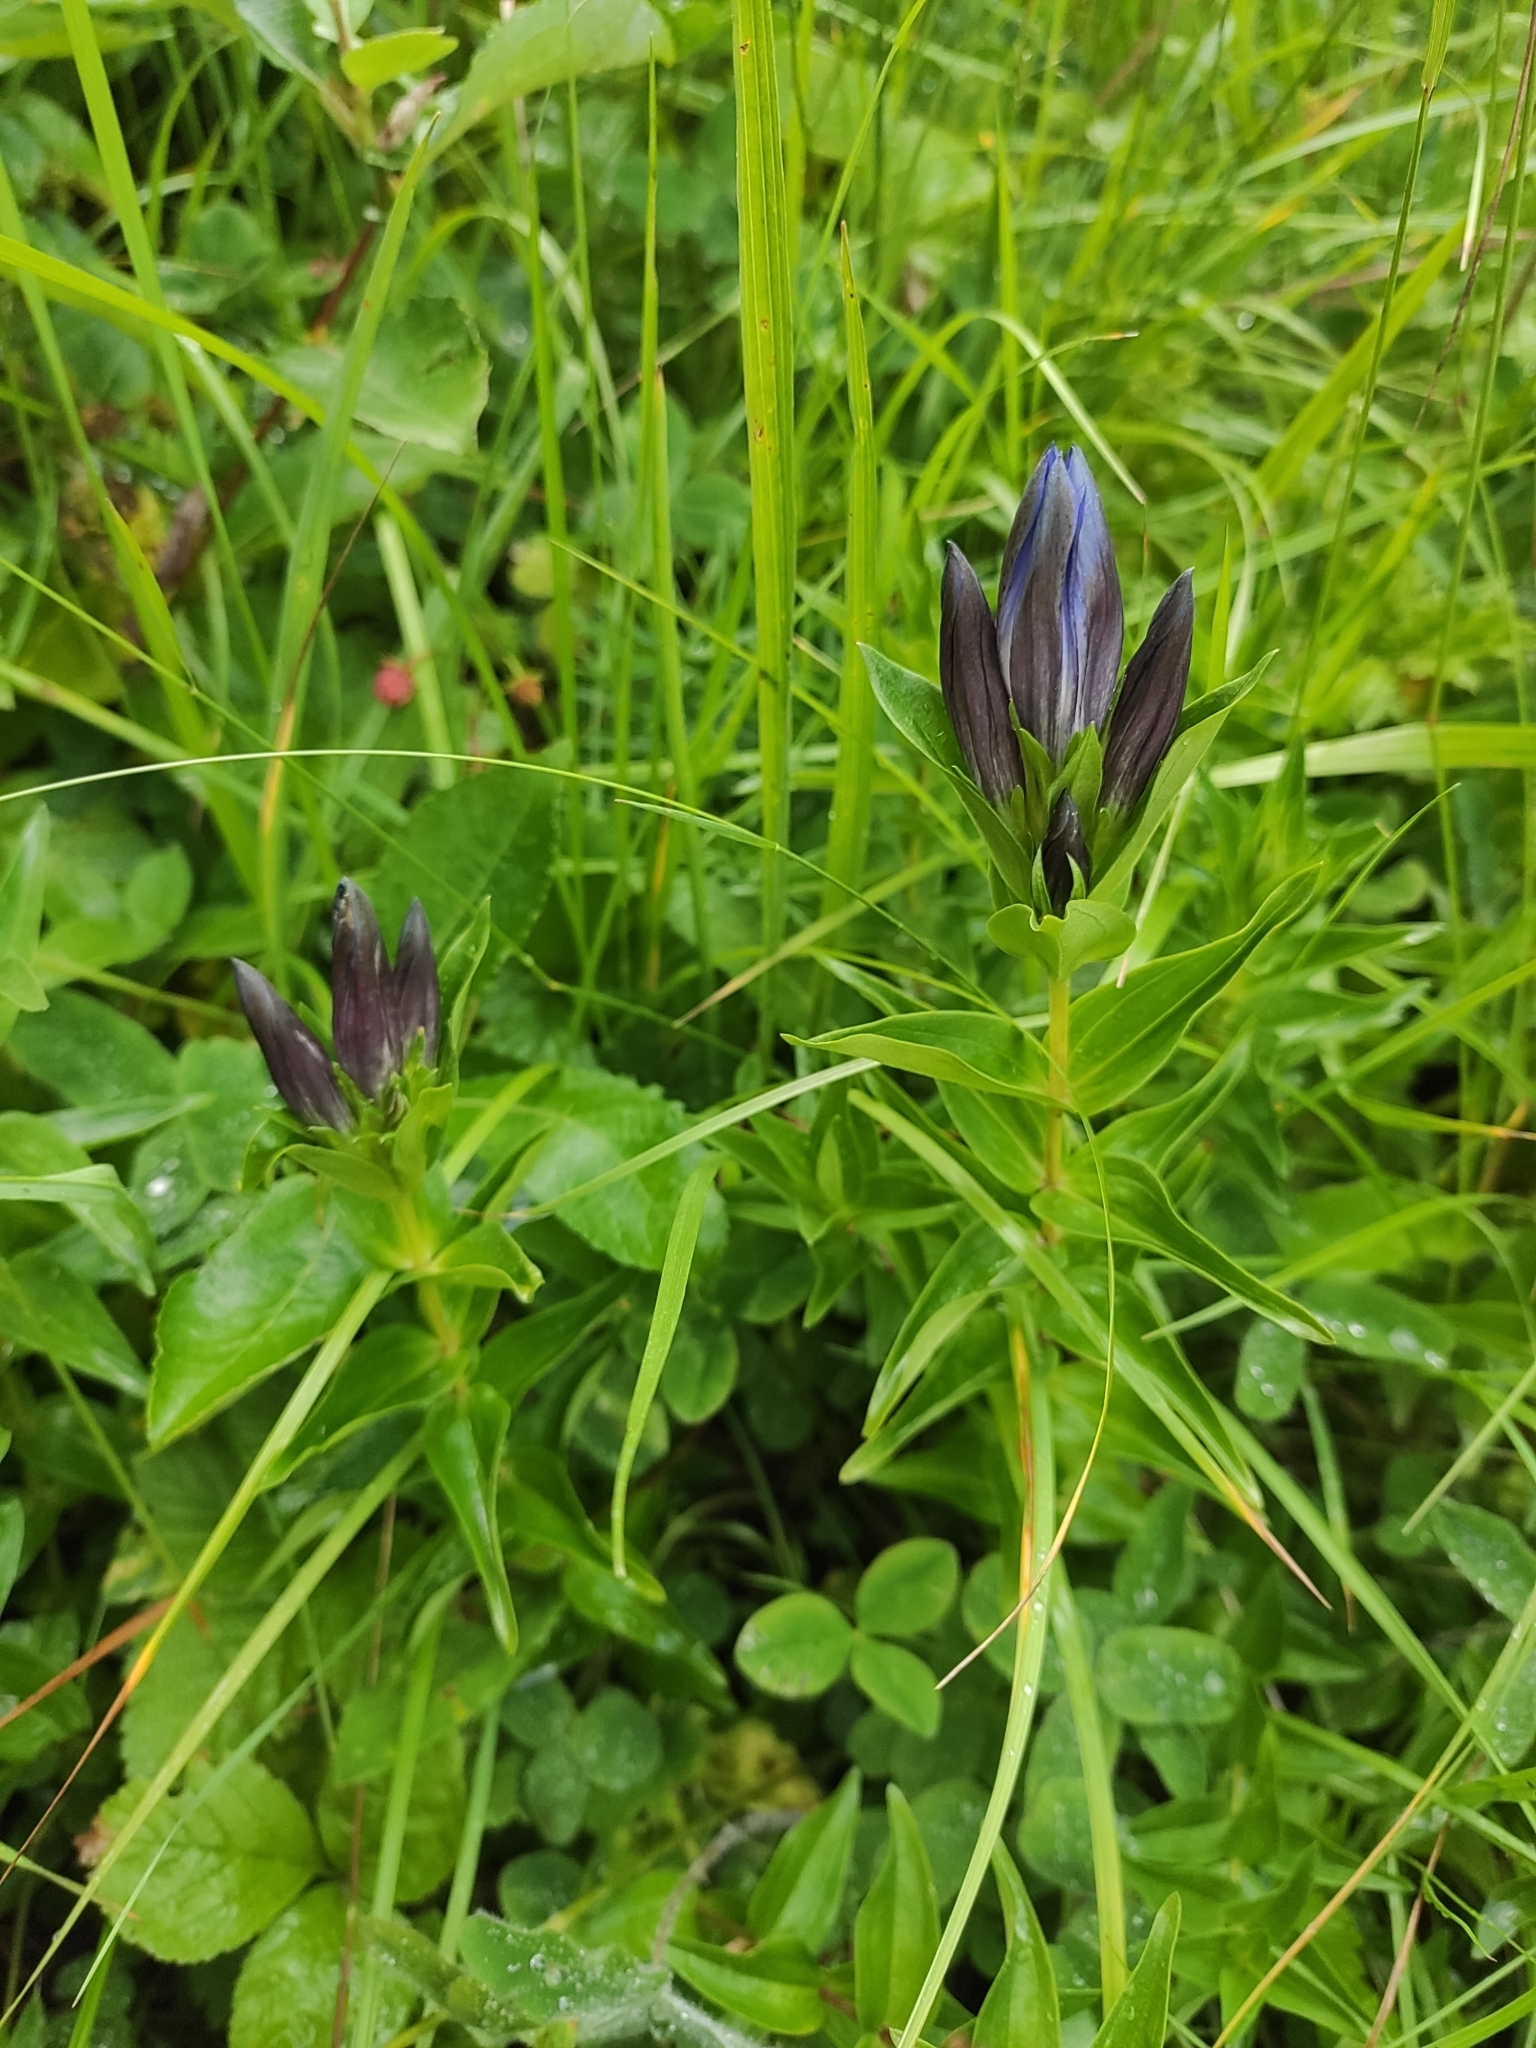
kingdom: Plantae
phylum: Tracheophyta
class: Magnoliopsida
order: Gentianales
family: Gentianaceae
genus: Gentiana
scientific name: Gentiana septemfida
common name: Crested gentian
